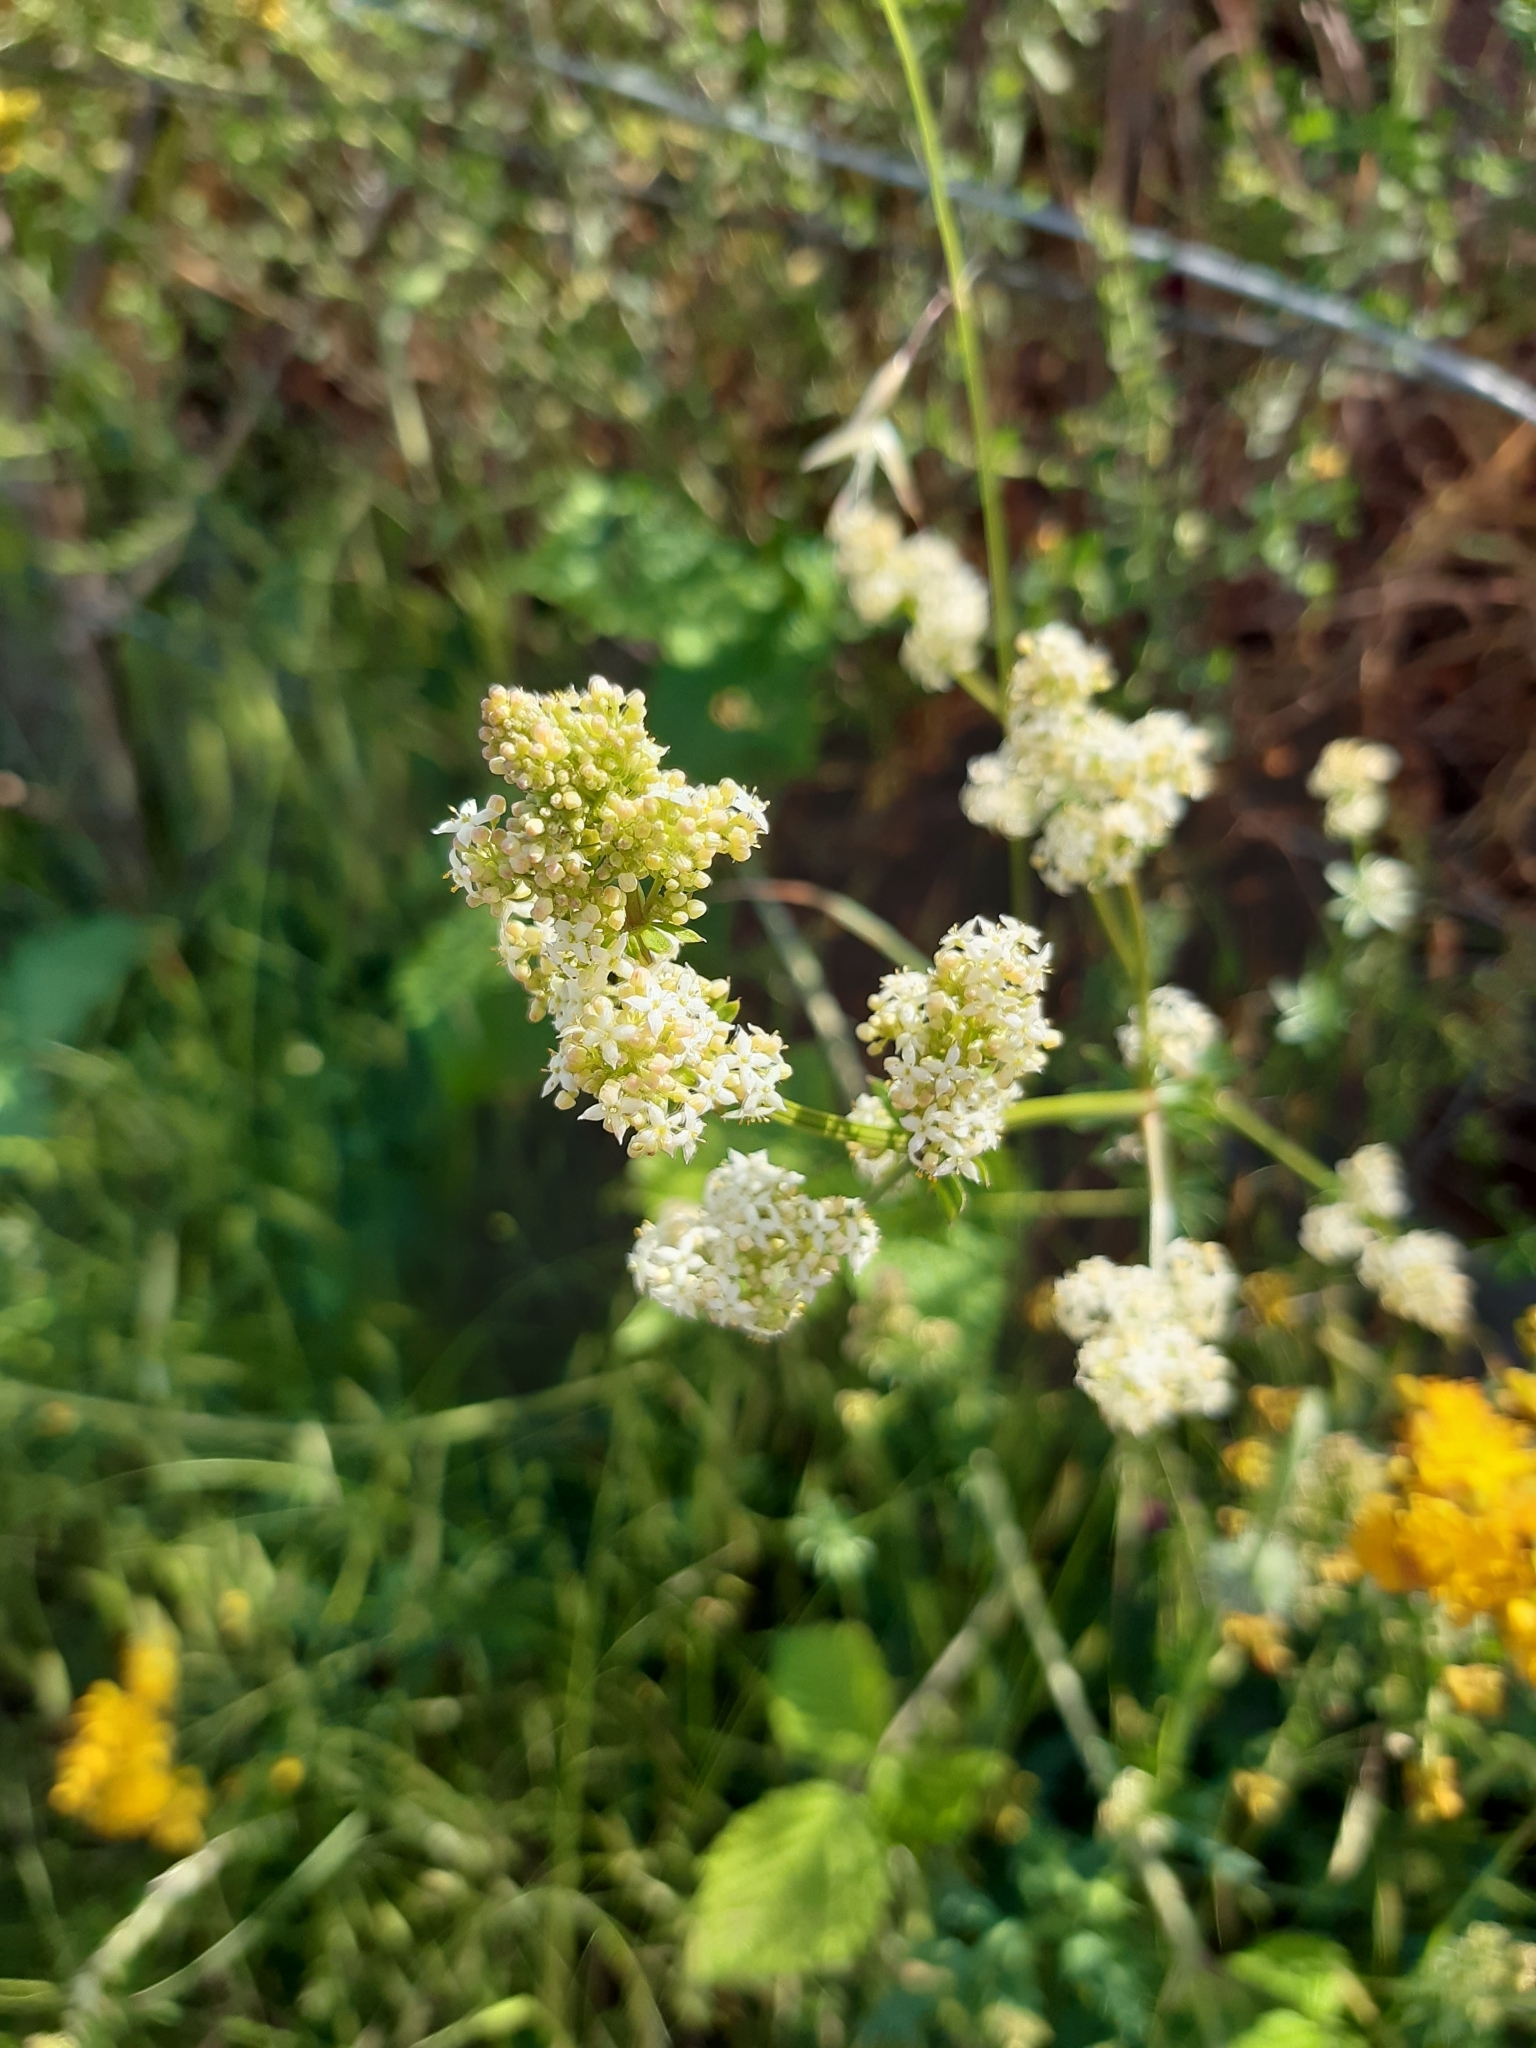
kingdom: Plantae
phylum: Tracheophyta
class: Magnoliopsida
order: Gentianales
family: Rubiaceae
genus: Galium
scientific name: Galium album
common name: White bedstraw
